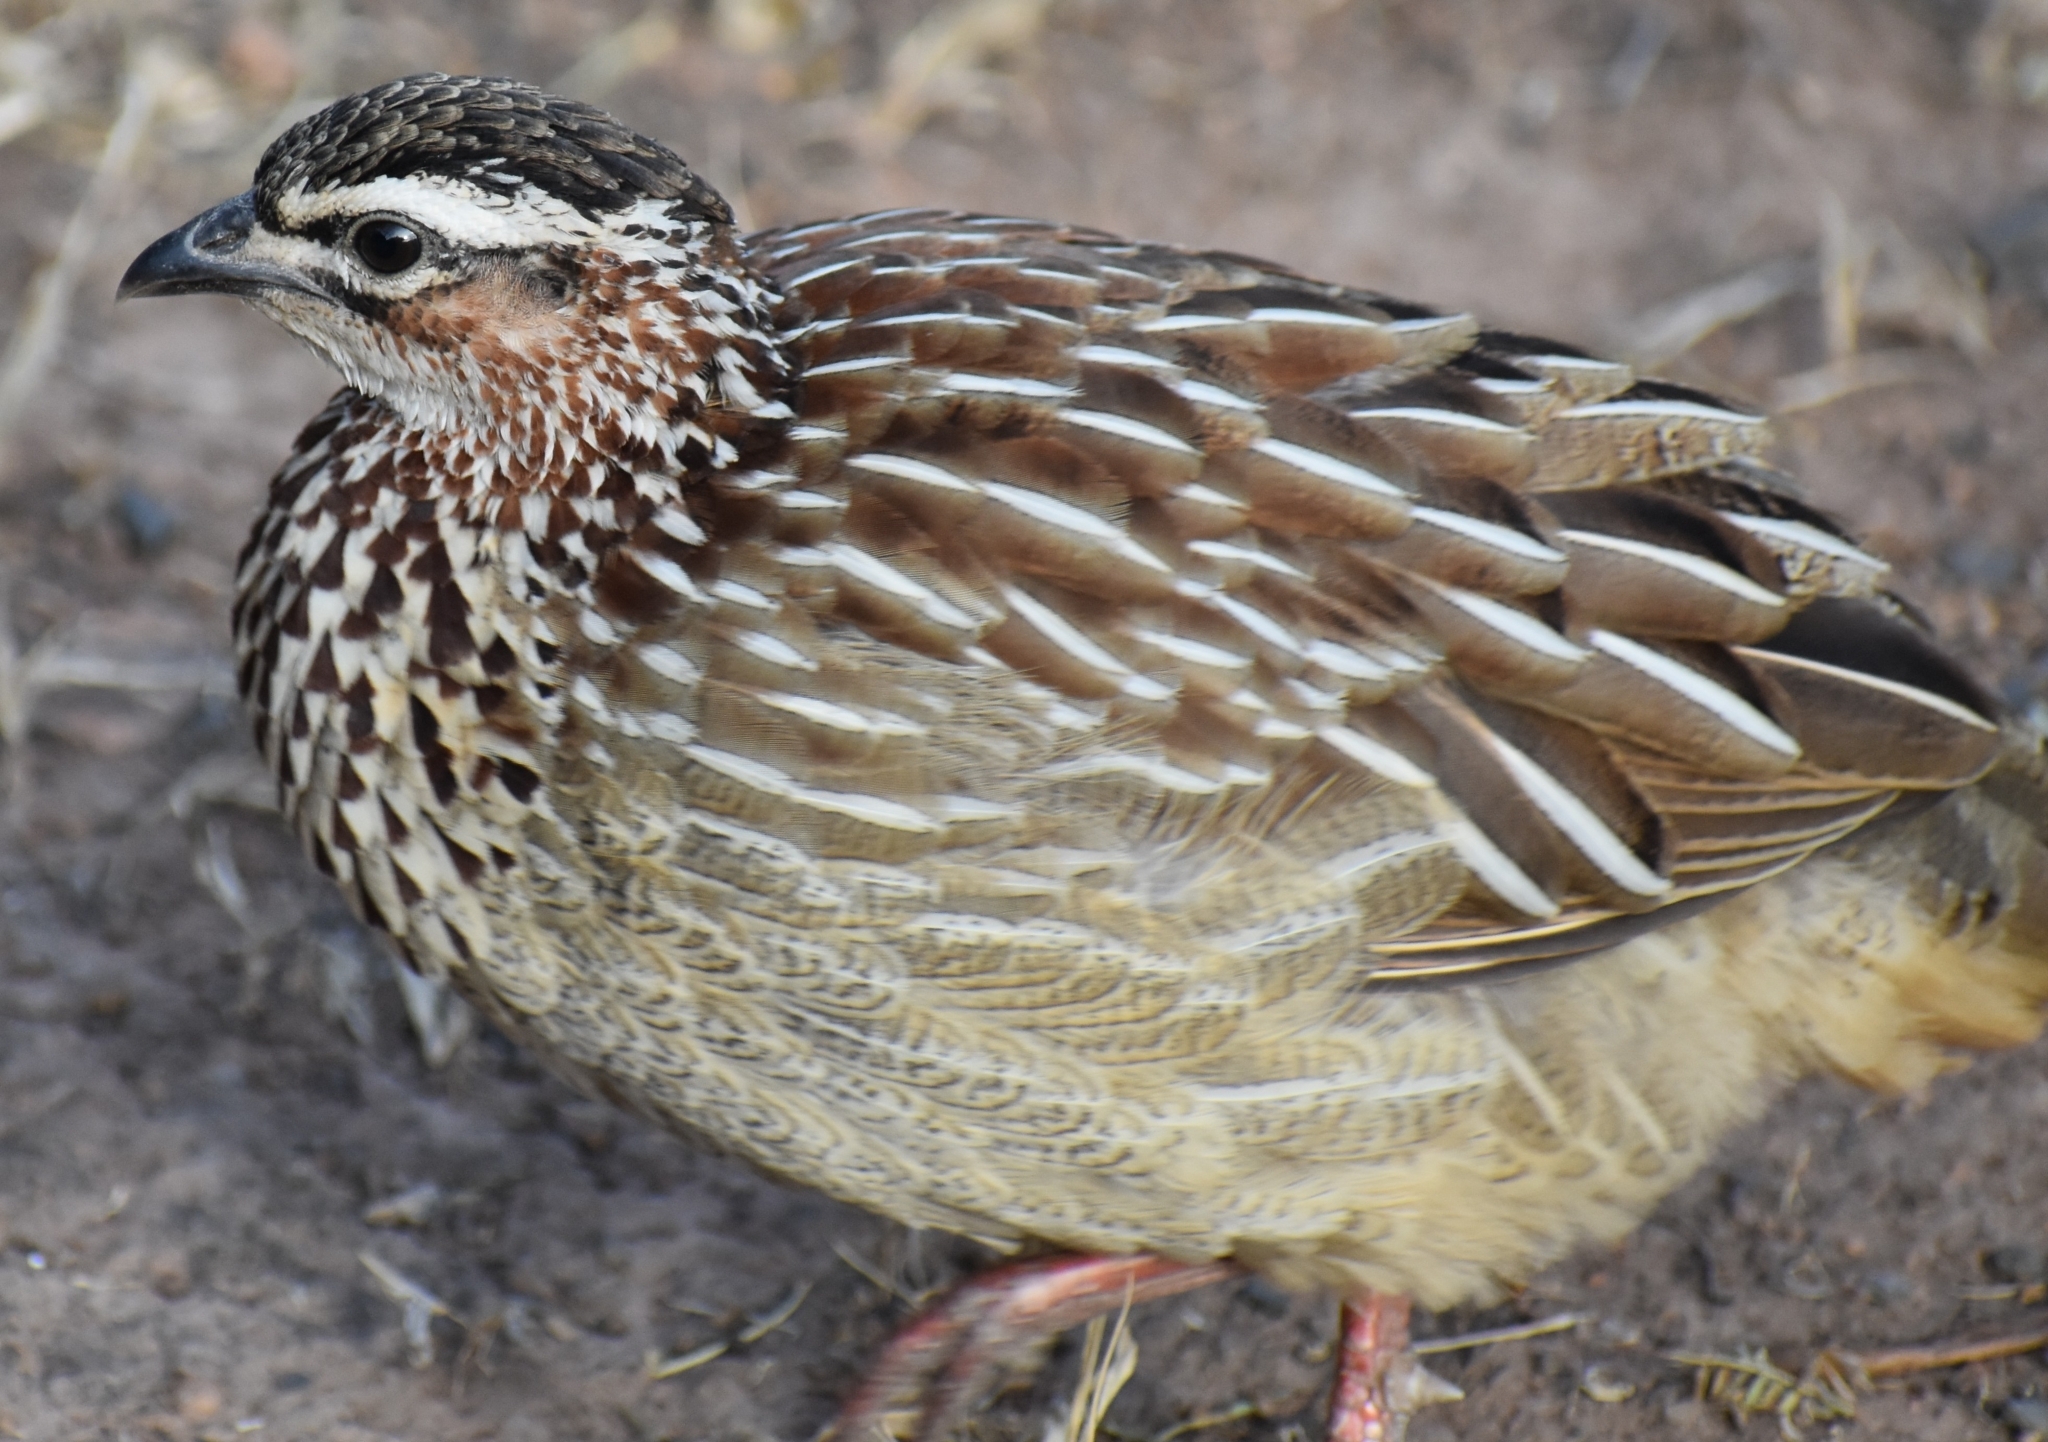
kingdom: Animalia
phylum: Chordata
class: Aves
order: Galliformes
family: Phasianidae
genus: Ortygornis
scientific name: Ortygornis sephaena
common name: Crested francolin
